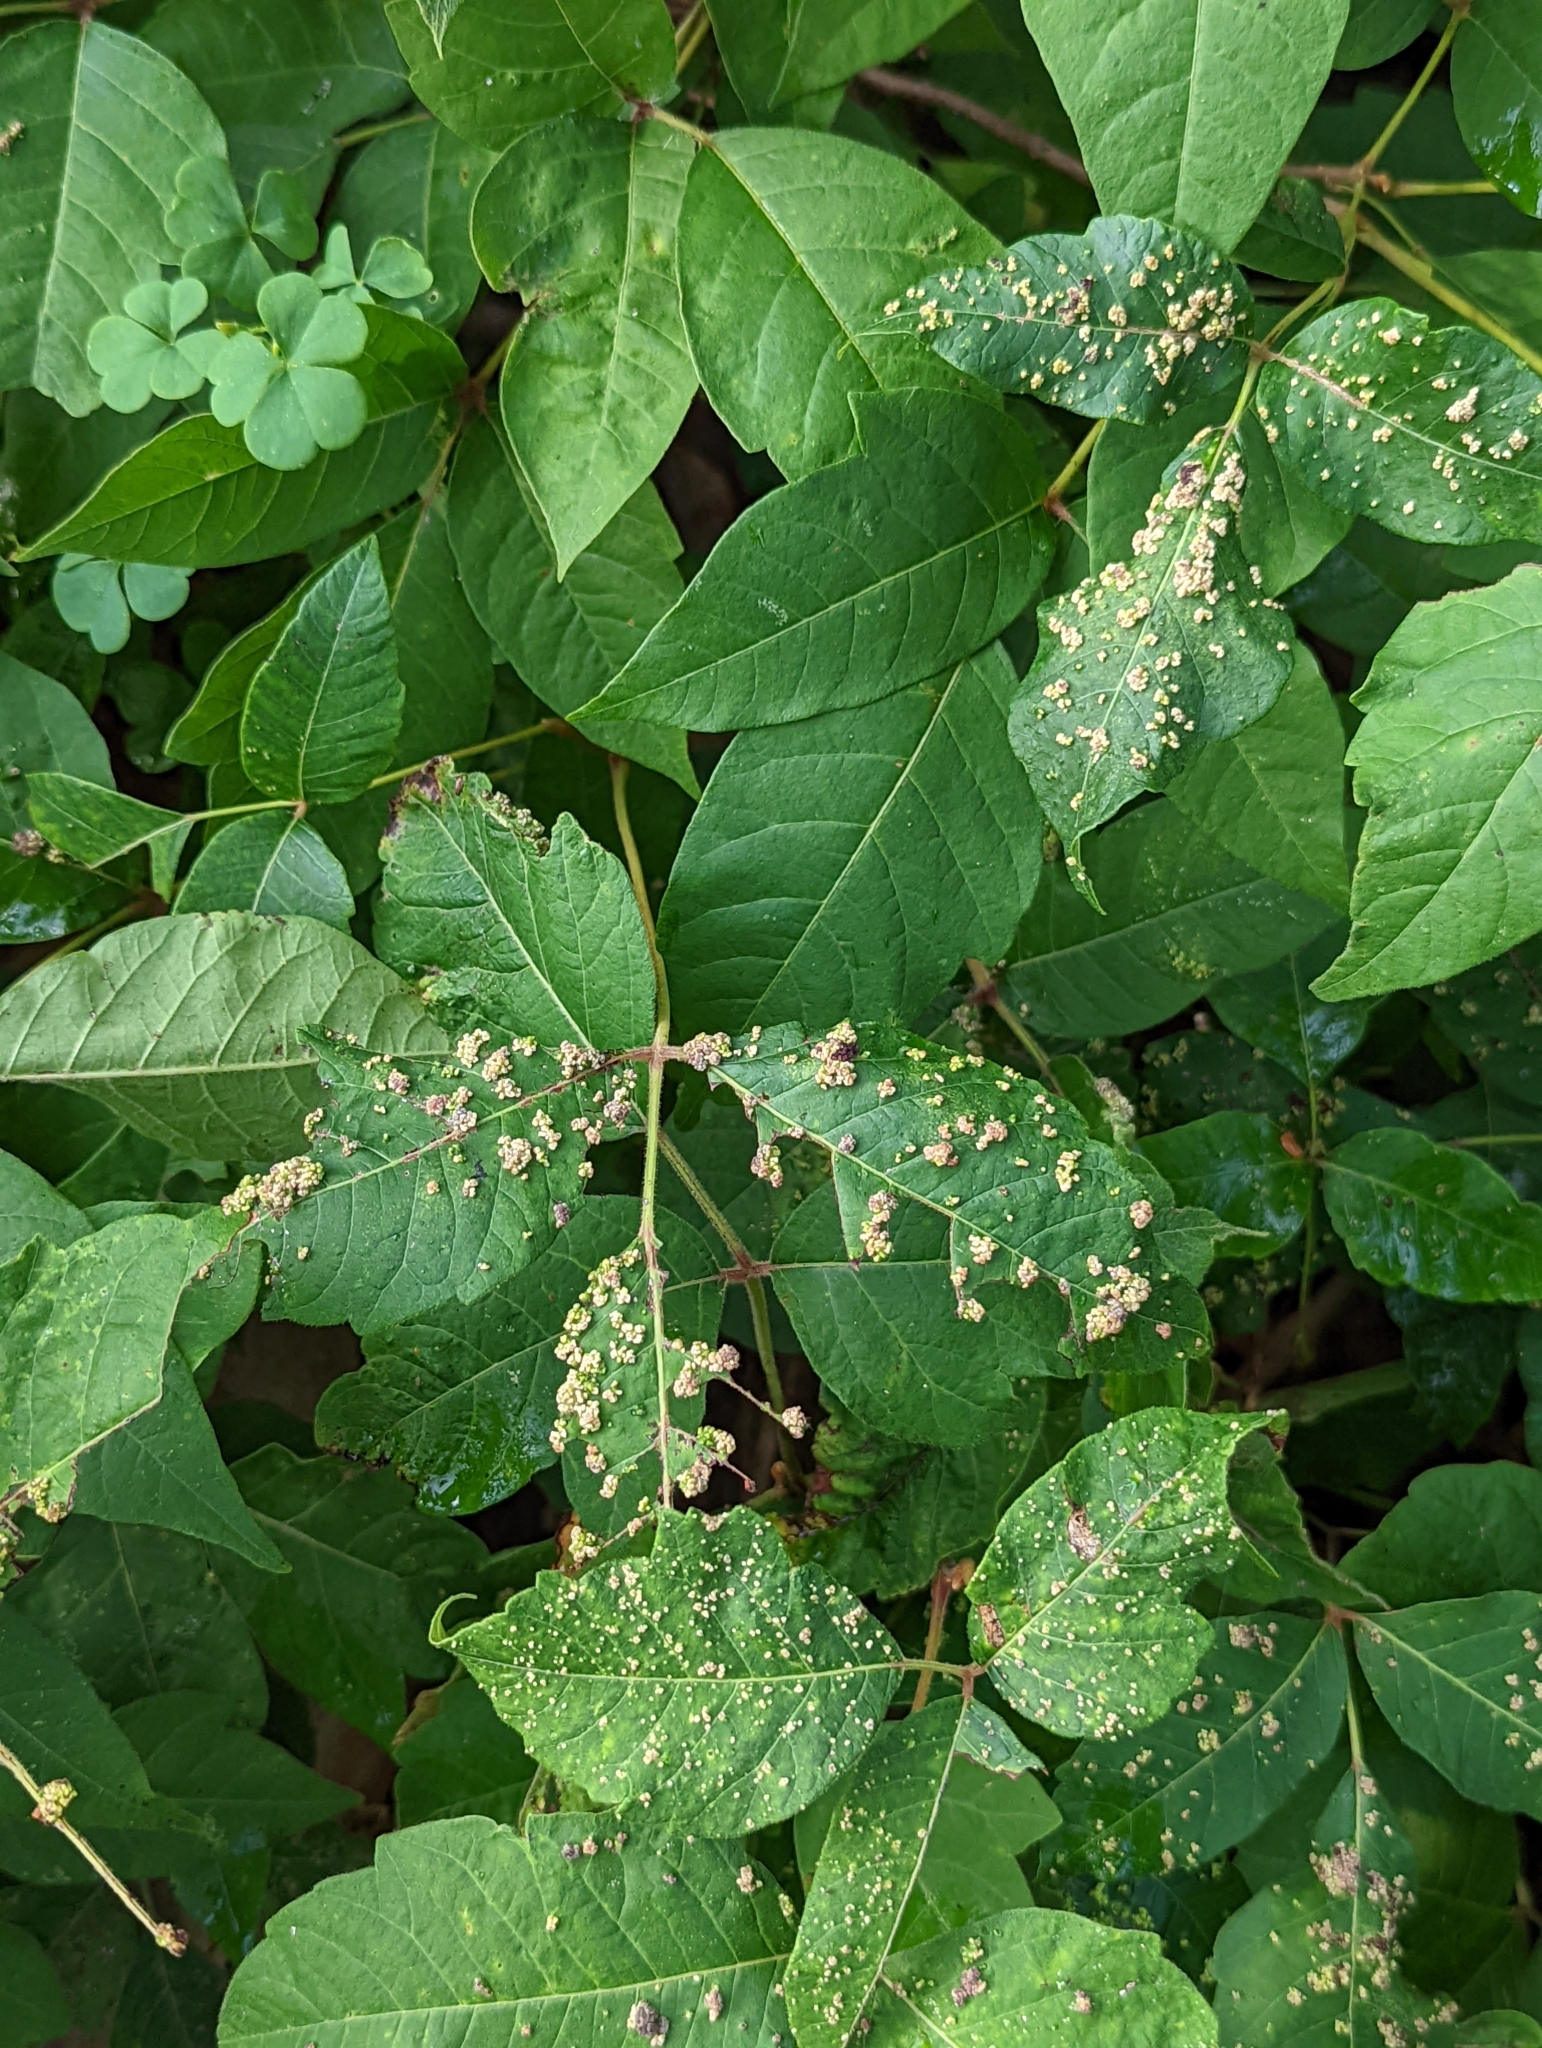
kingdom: Animalia
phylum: Arthropoda
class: Arachnida
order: Trombidiformes
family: Eriophyidae
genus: Aculops
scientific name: Aculops
